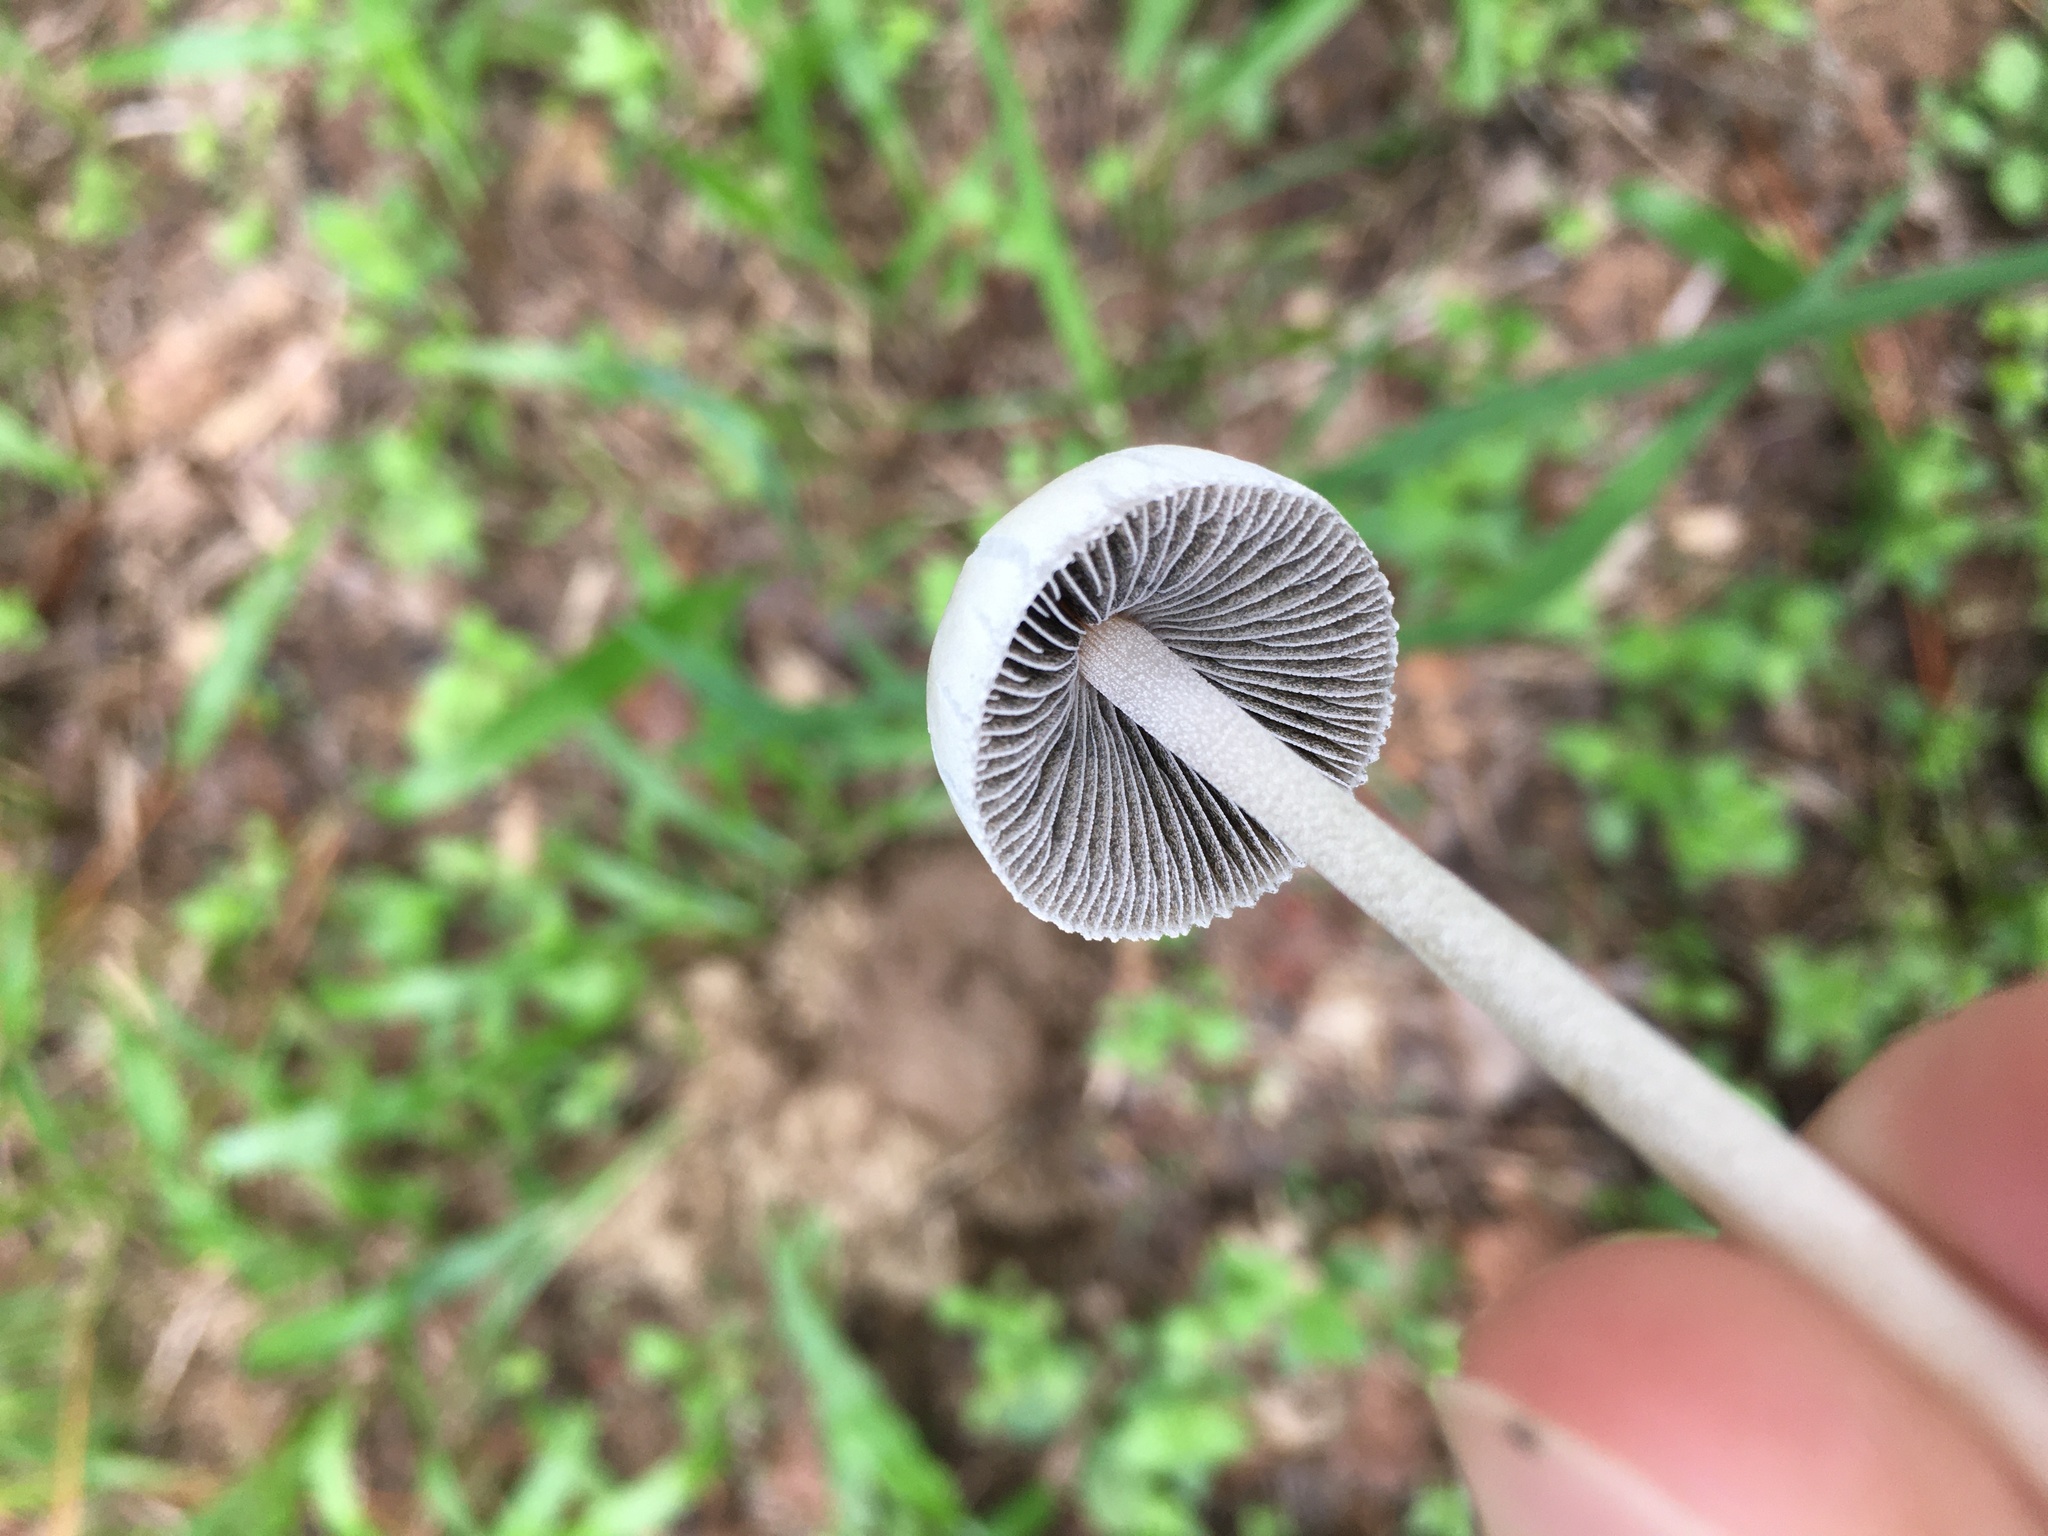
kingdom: Fungi
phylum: Basidiomycota
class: Agaricomycetes
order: Agaricales
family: Bolbitiaceae
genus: Panaeolus
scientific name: Panaeolus antillarum
